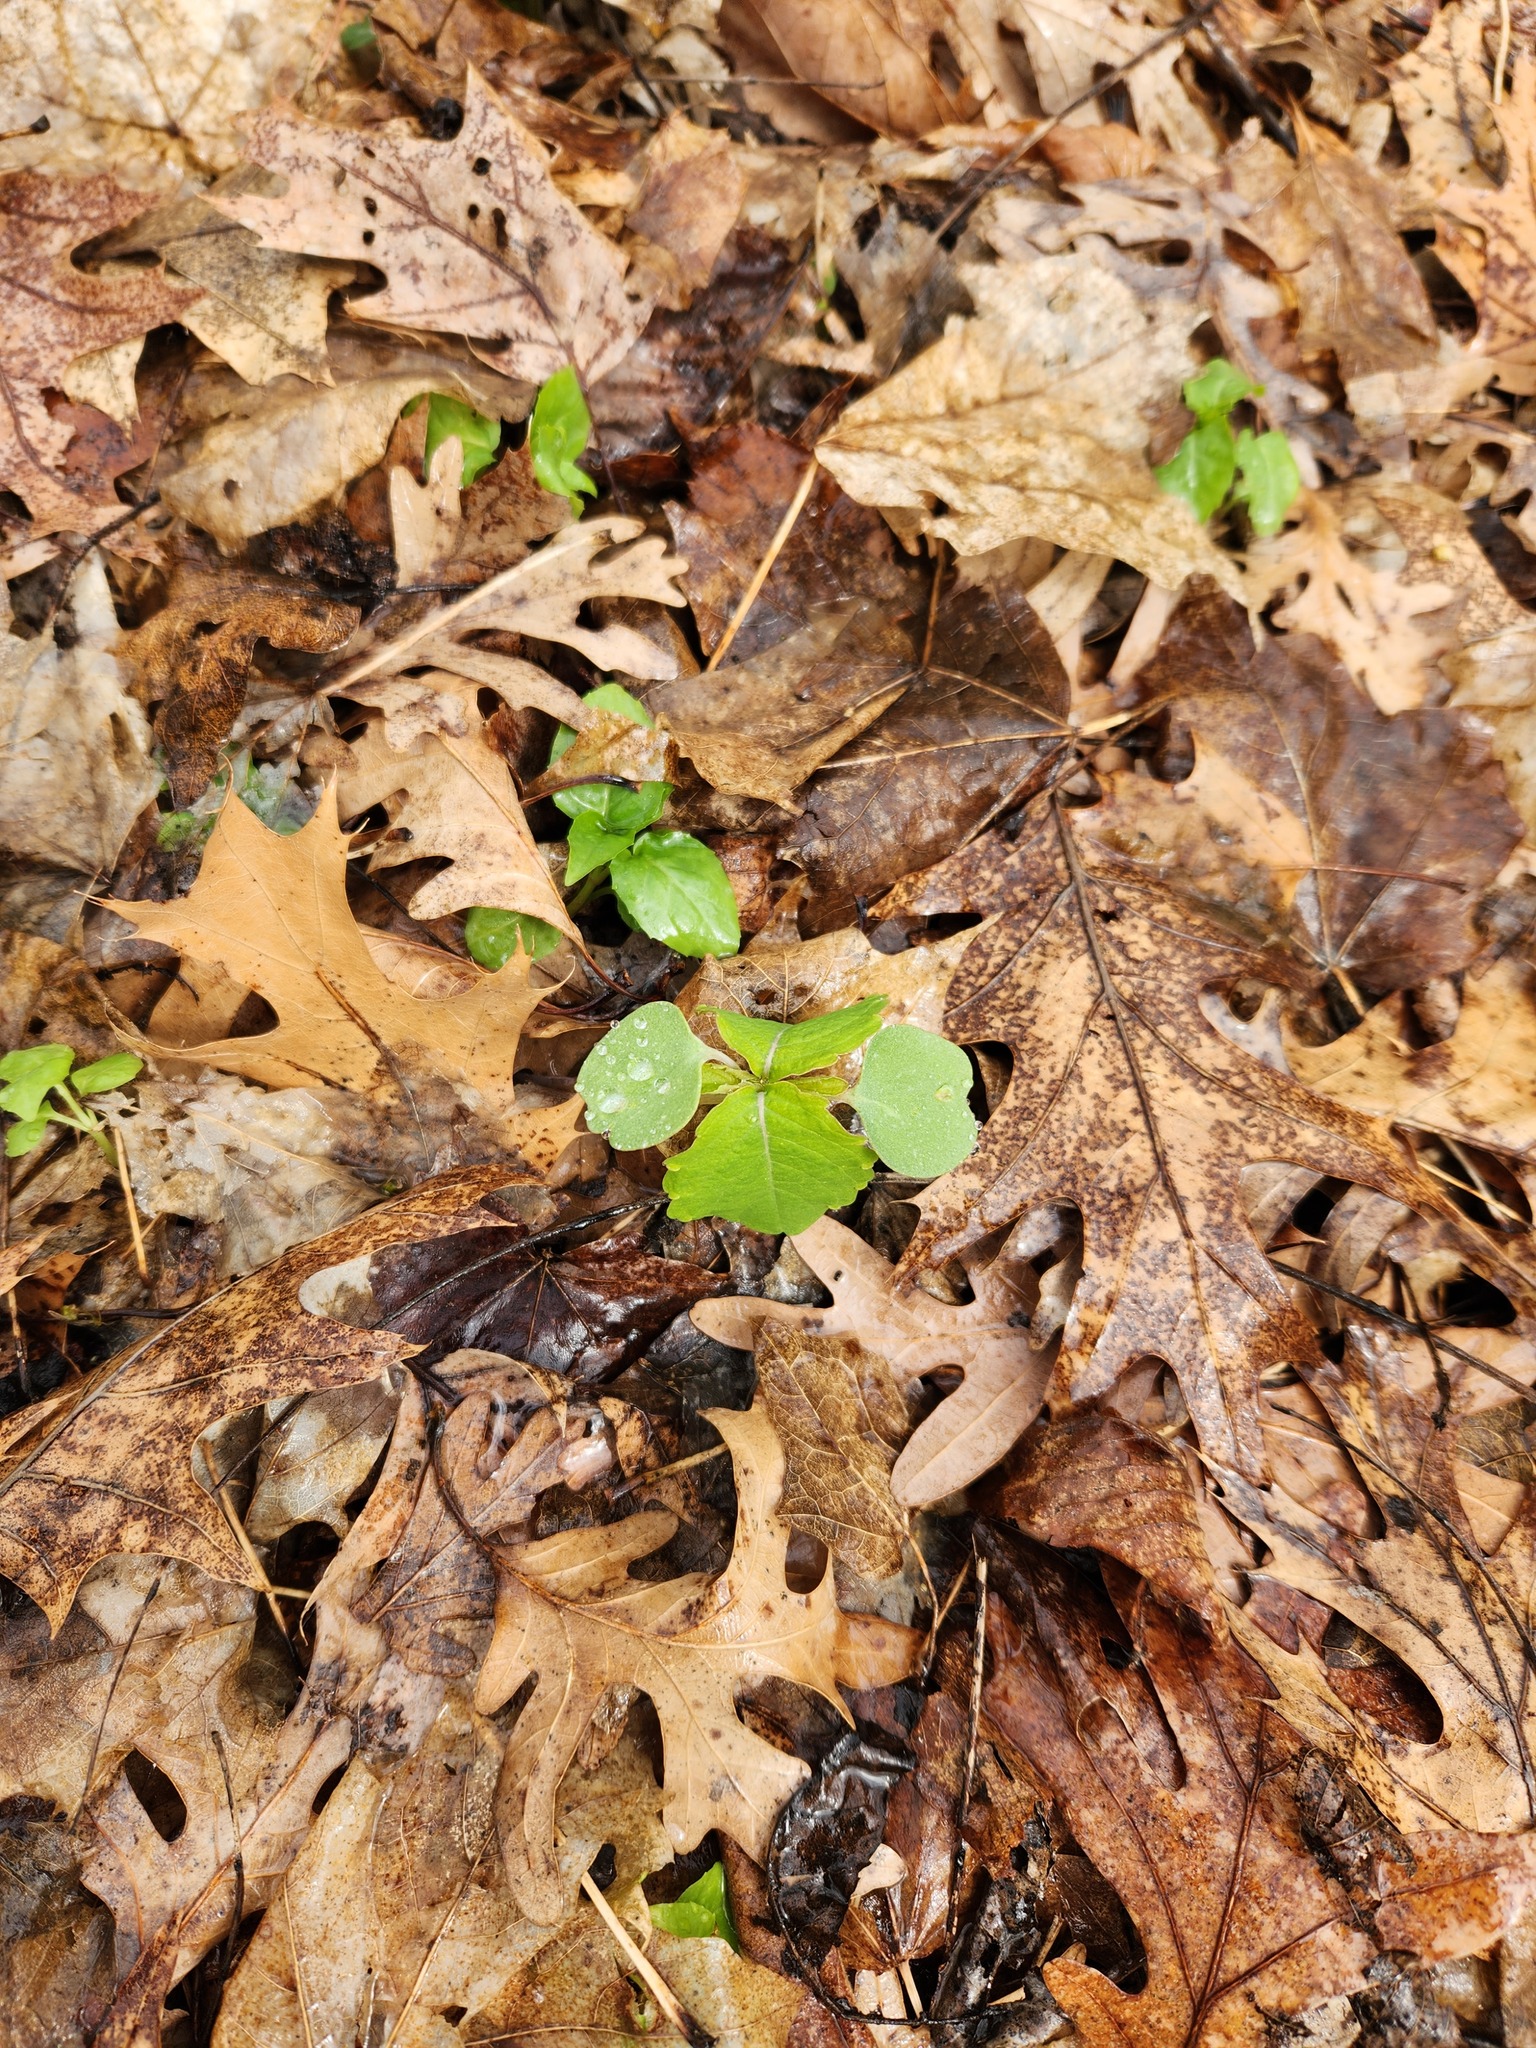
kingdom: Plantae
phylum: Tracheophyta
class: Magnoliopsida
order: Ericales
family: Balsaminaceae
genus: Impatiens
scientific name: Impatiens capensis
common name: Orange balsam
